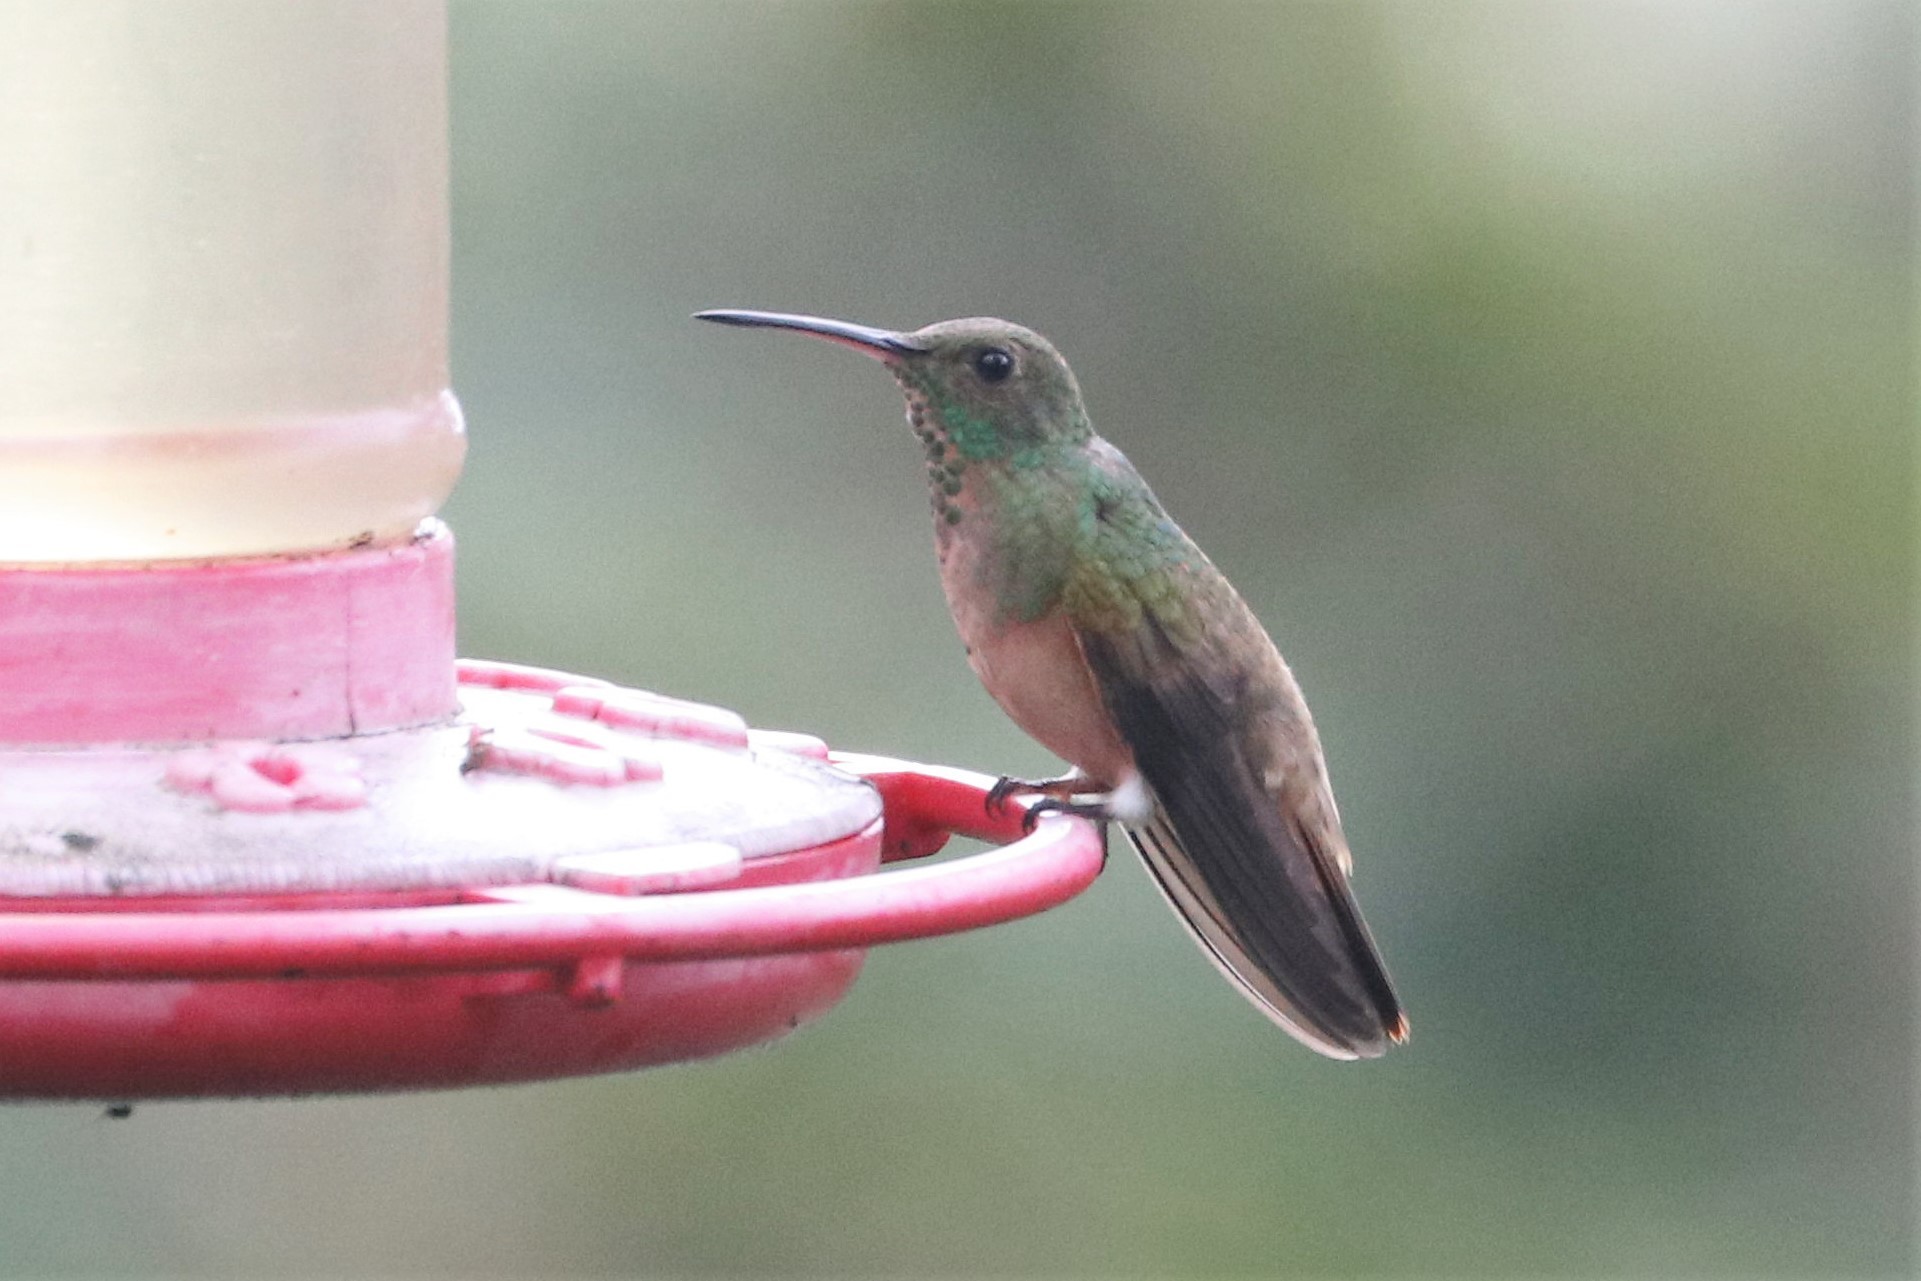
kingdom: Animalia
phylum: Chordata
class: Aves
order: Apodiformes
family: Trochilidae
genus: Saucerottia
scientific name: Saucerottia castaneiventris
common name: Chestnut-bellied hummingbird
